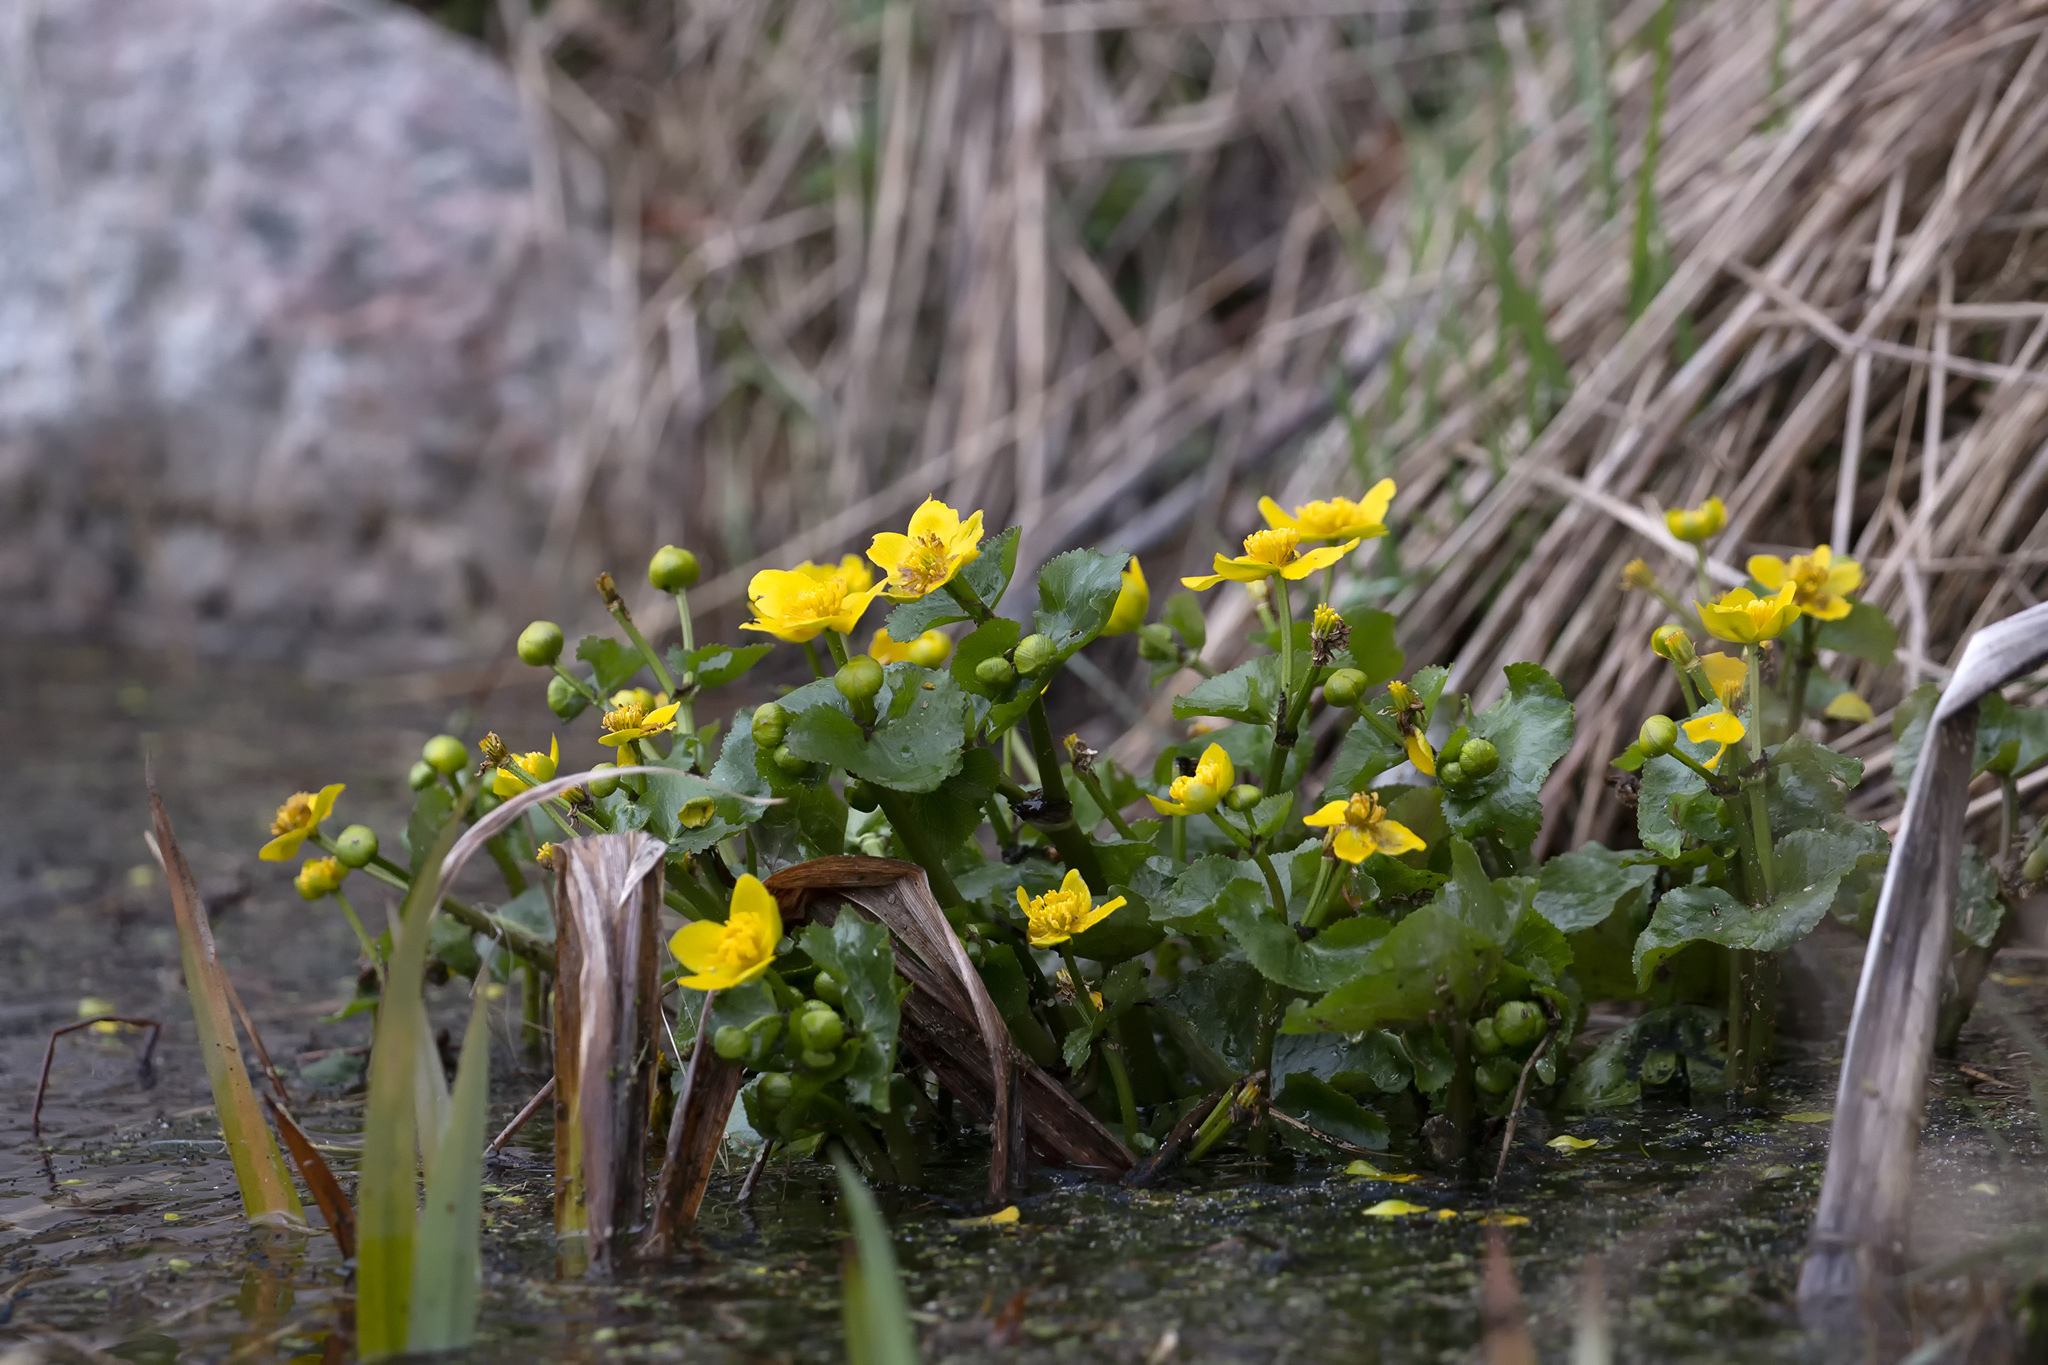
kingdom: Plantae
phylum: Tracheophyta
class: Magnoliopsida
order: Ranunculales
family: Ranunculaceae
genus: Caltha
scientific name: Caltha palustris
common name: Marsh marigold
